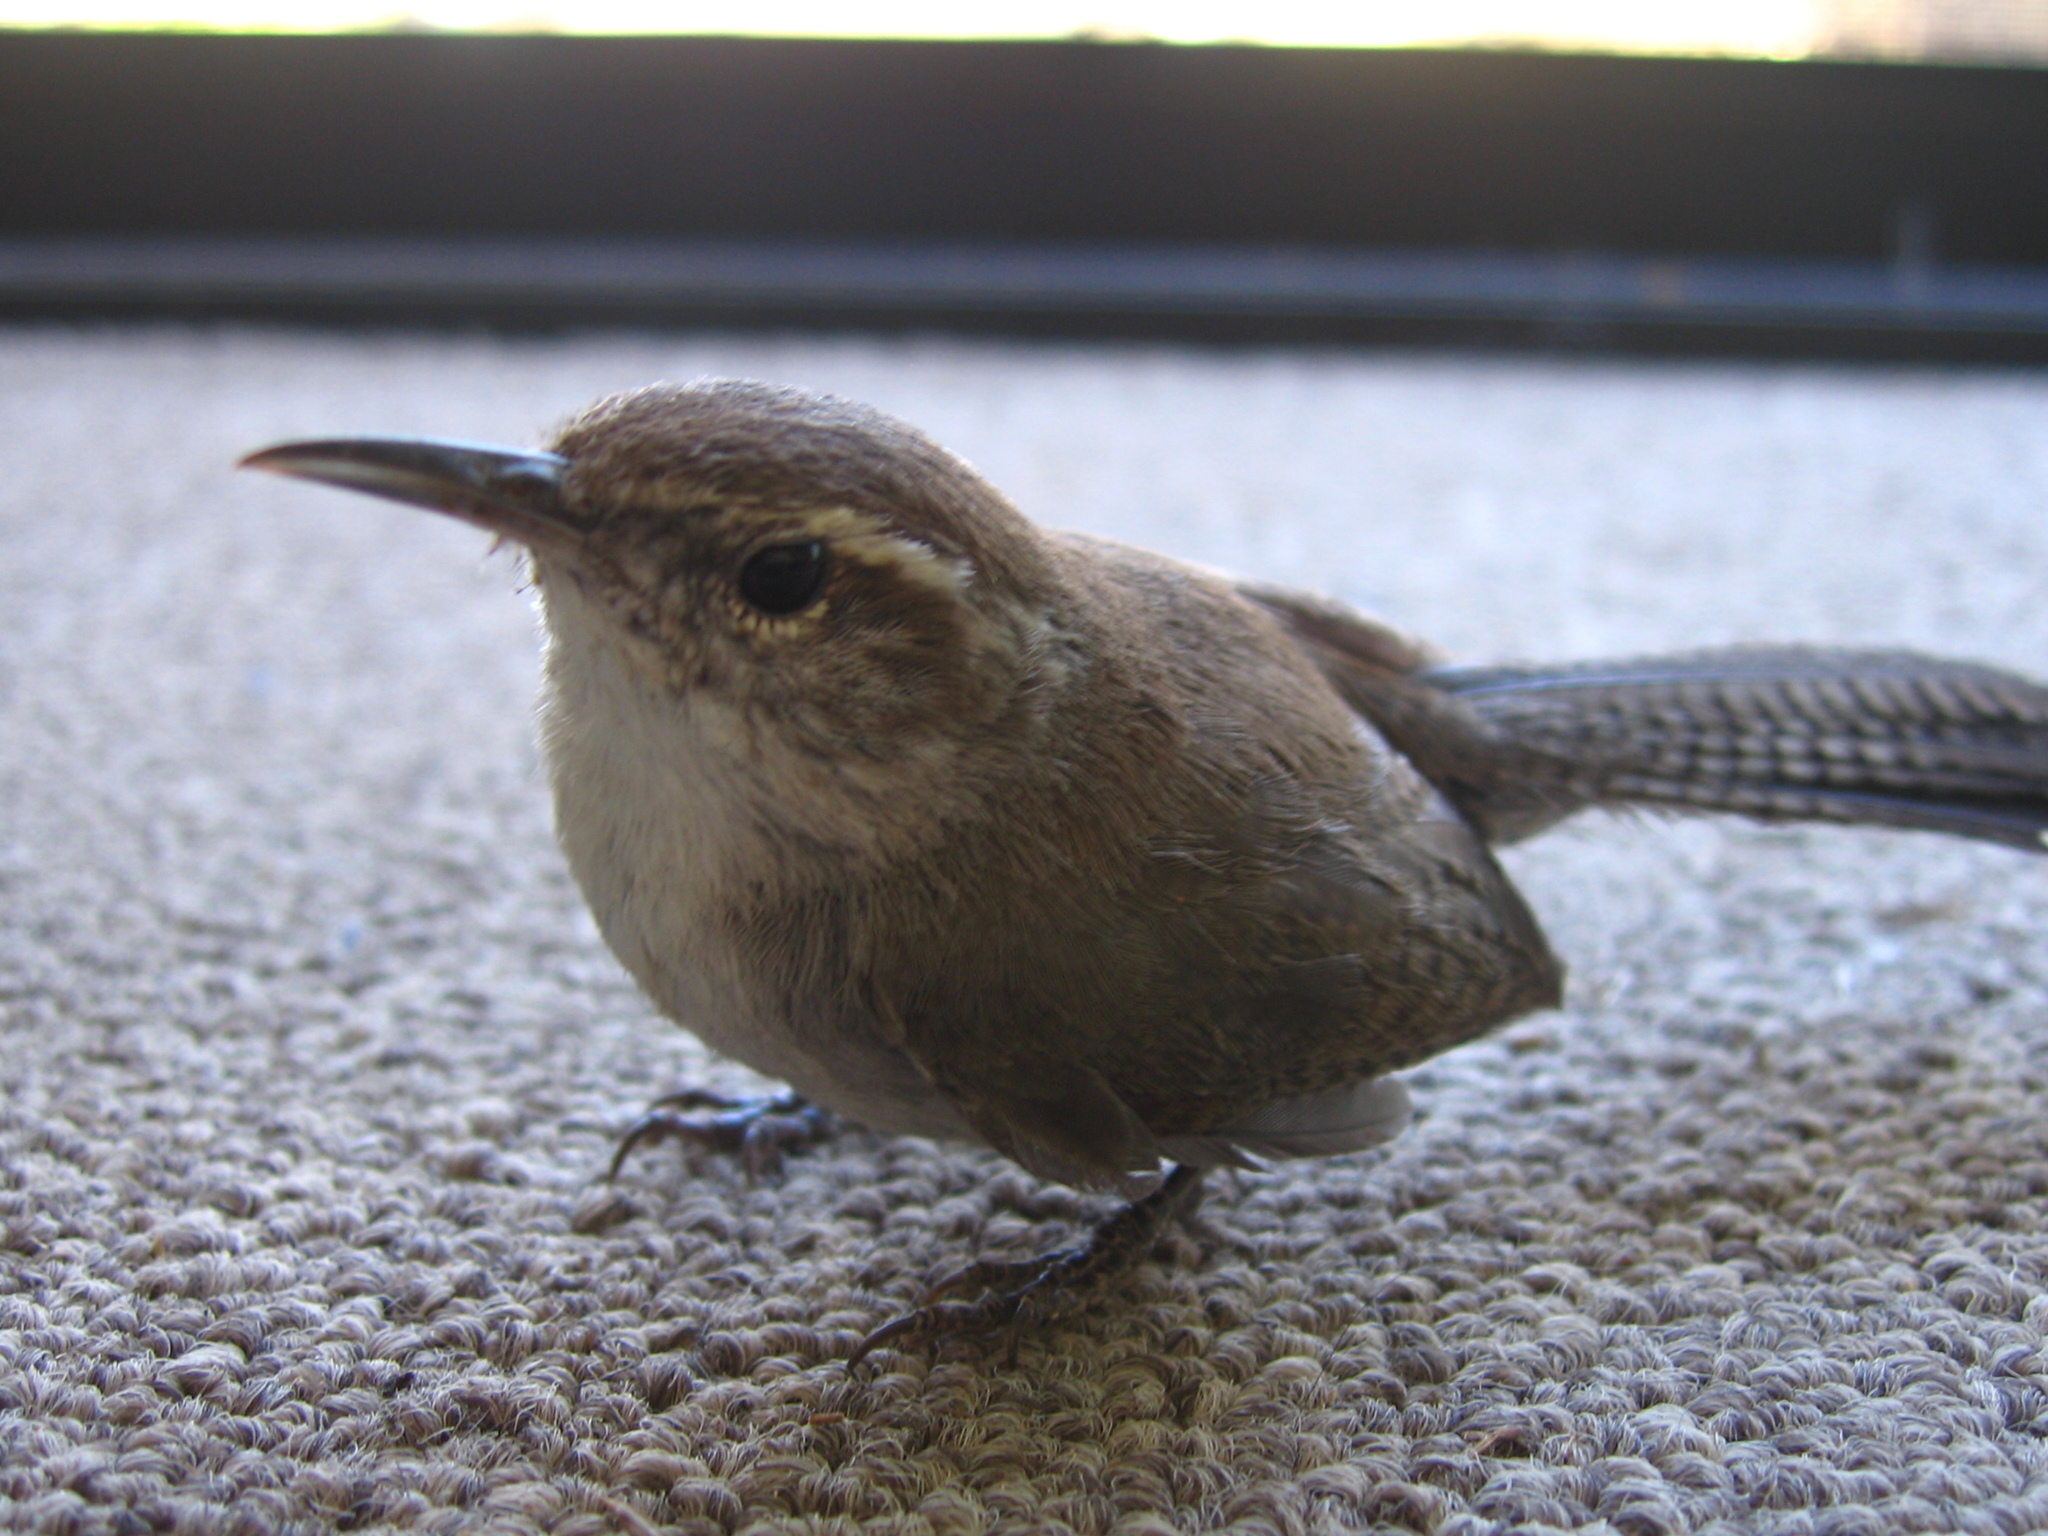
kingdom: Animalia
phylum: Chordata
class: Aves
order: Passeriformes
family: Troglodytidae
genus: Thryomanes
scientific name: Thryomanes bewickii
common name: Bewick's wren
